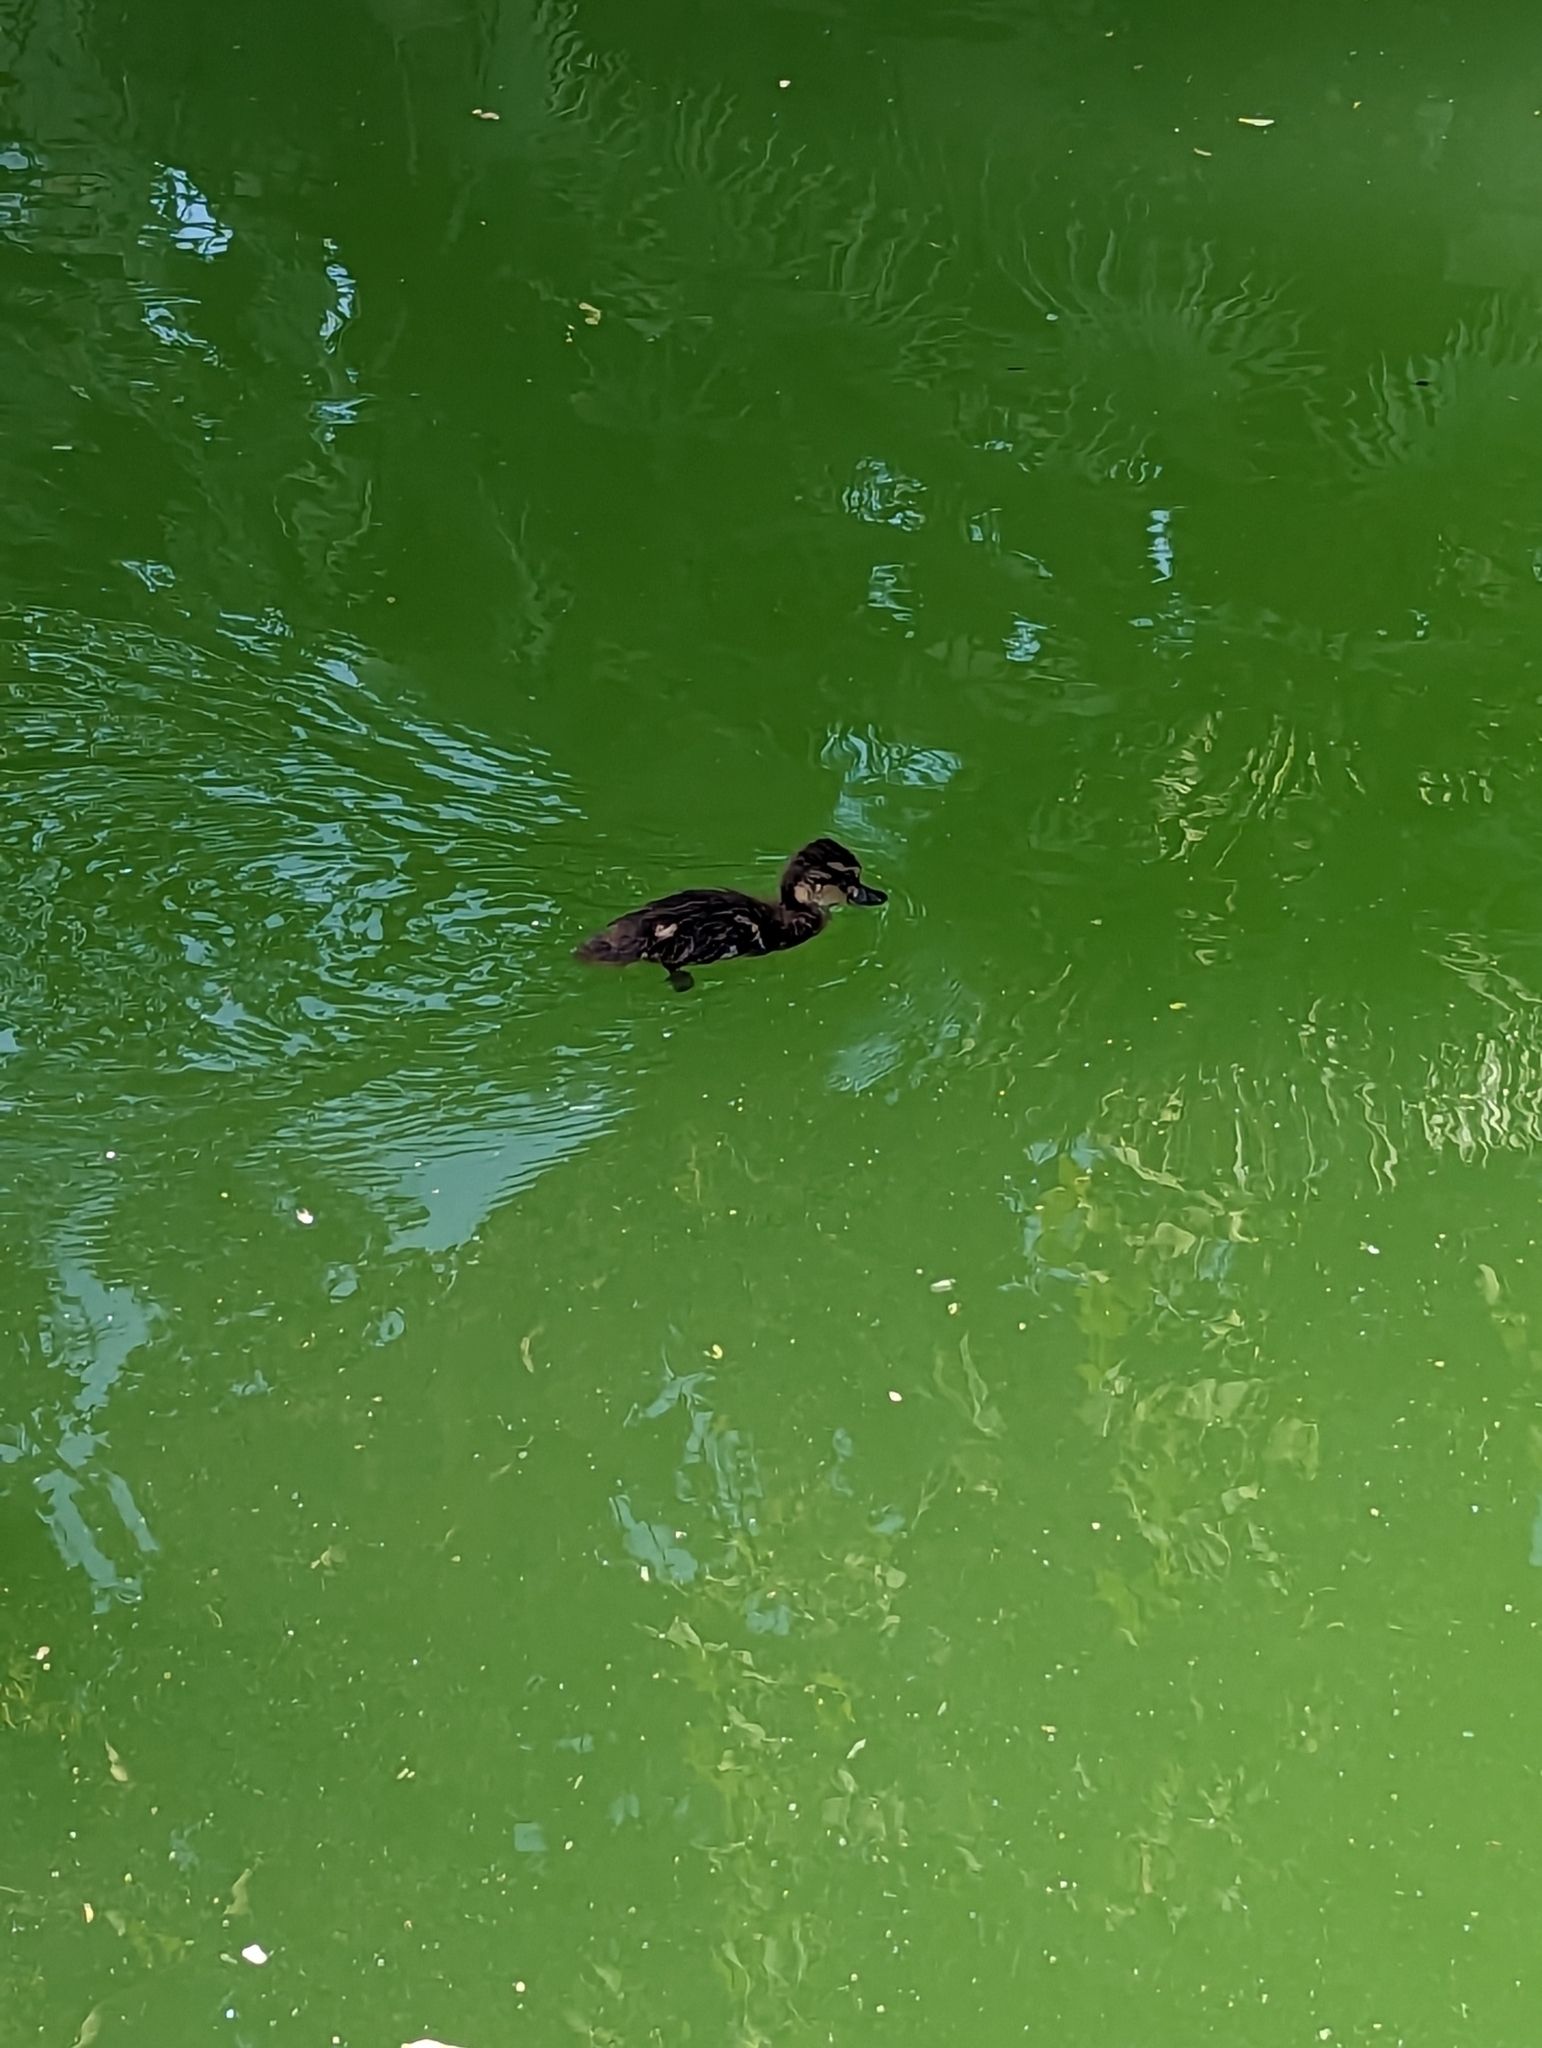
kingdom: Animalia
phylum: Chordata
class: Aves
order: Anseriformes
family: Anatidae
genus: Anas
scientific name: Anas platyrhynchos
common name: Mallard
